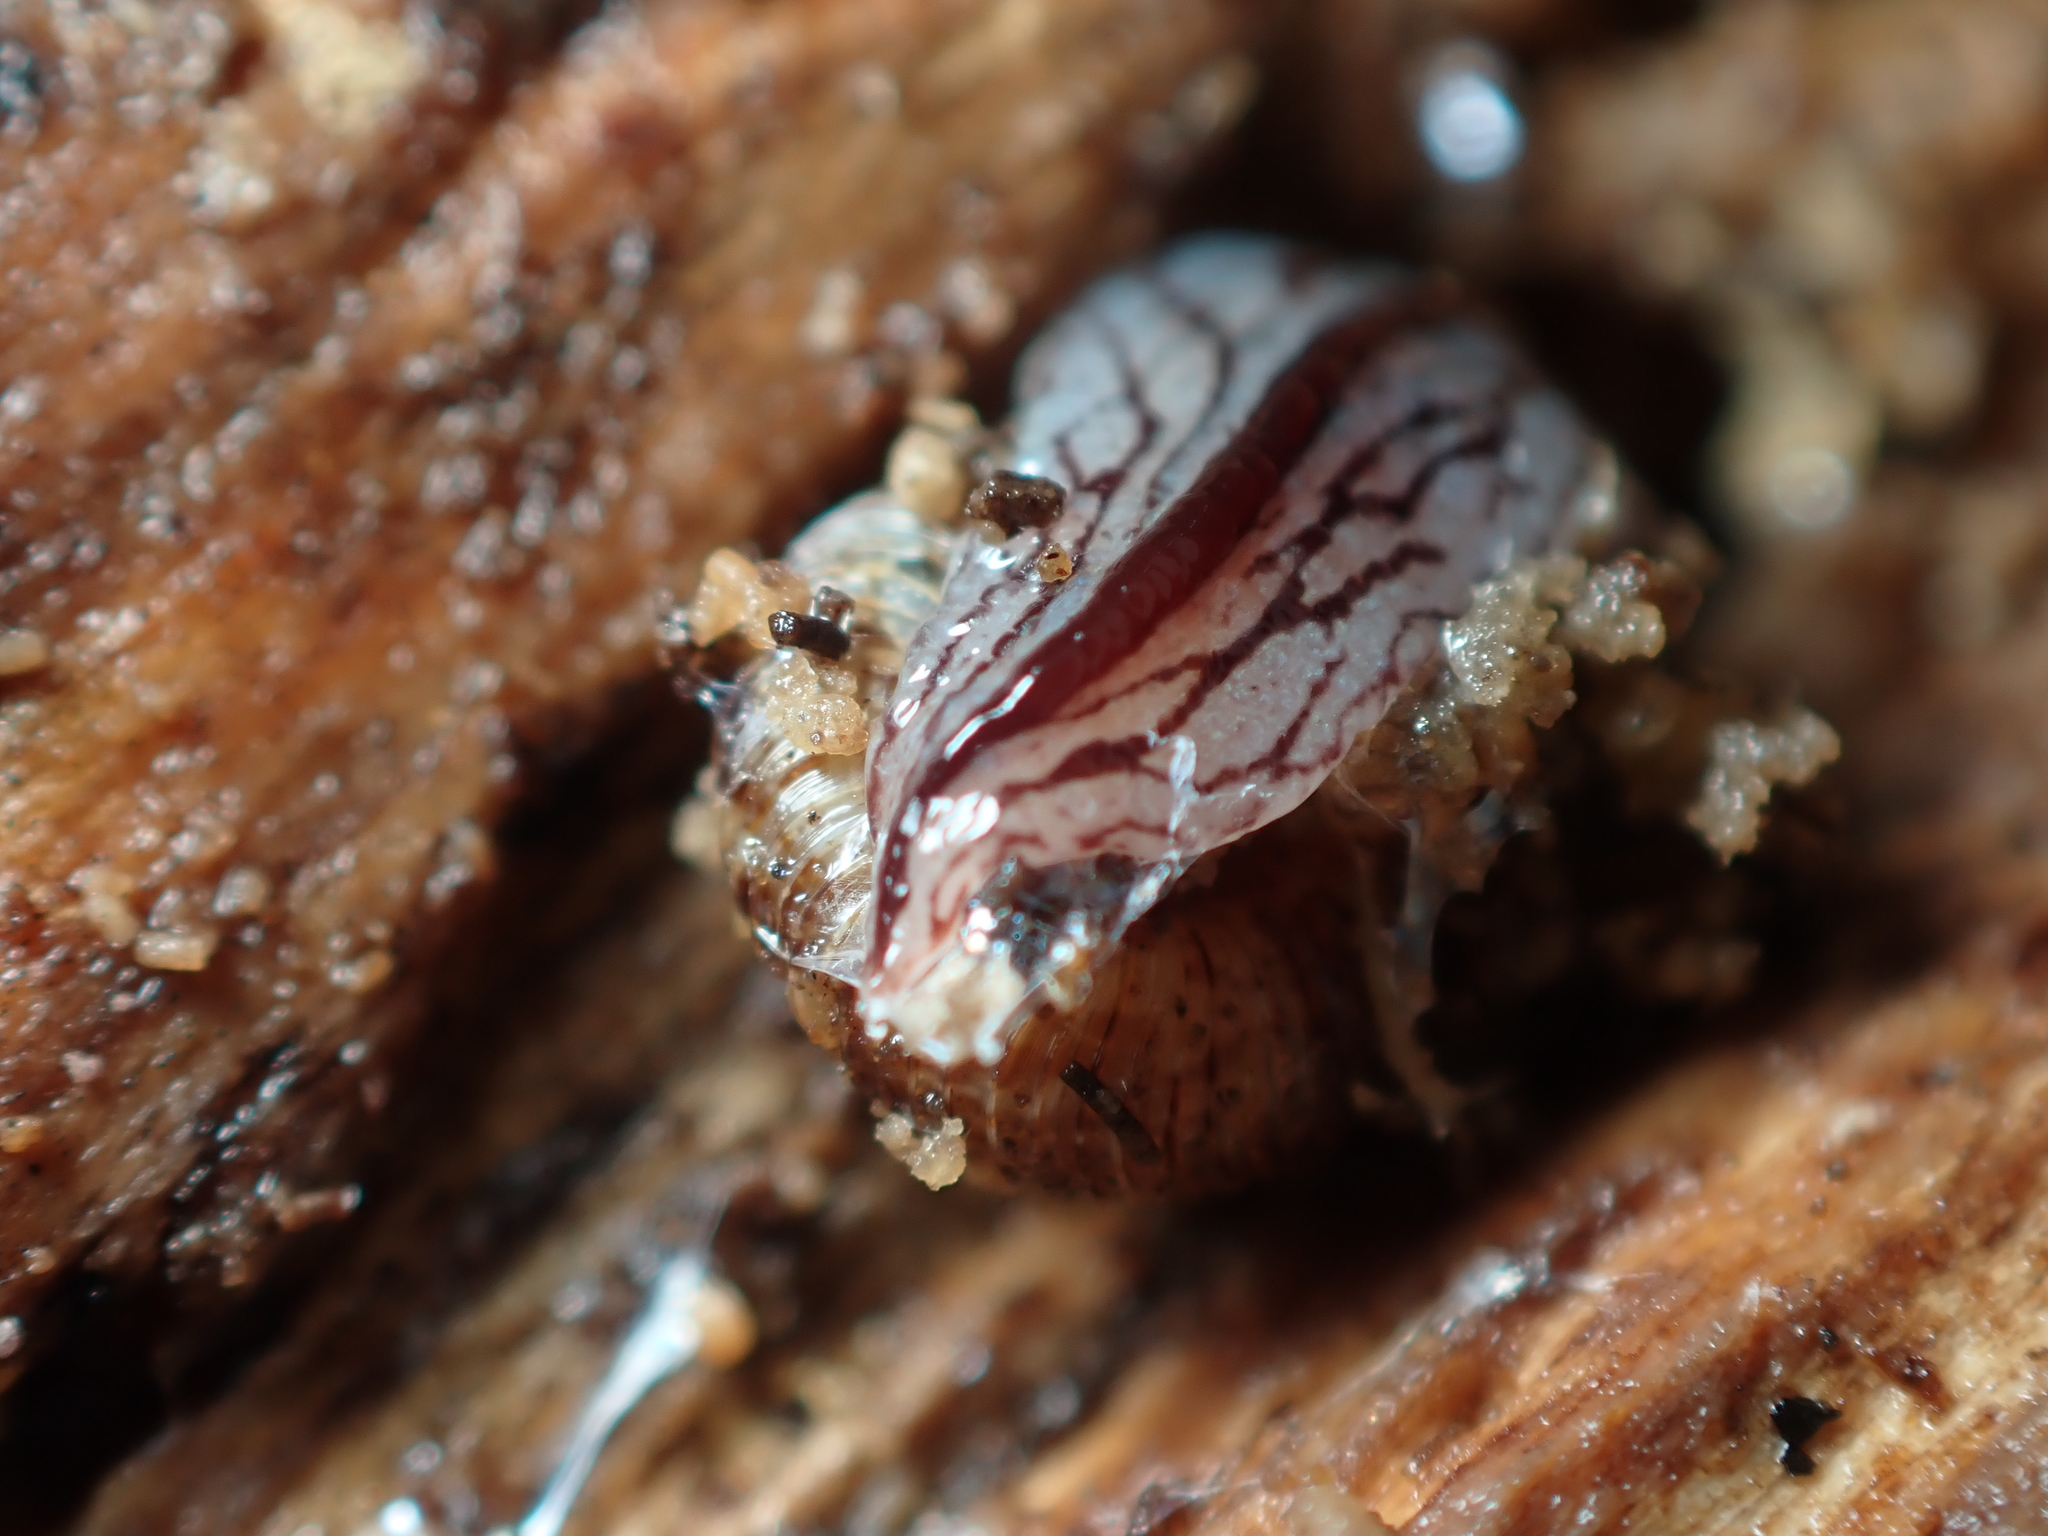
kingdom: Animalia
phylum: Platyhelminthes
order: Tricladida
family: Geoplanidae
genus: Artioposthia
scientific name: Artioposthia exulans
